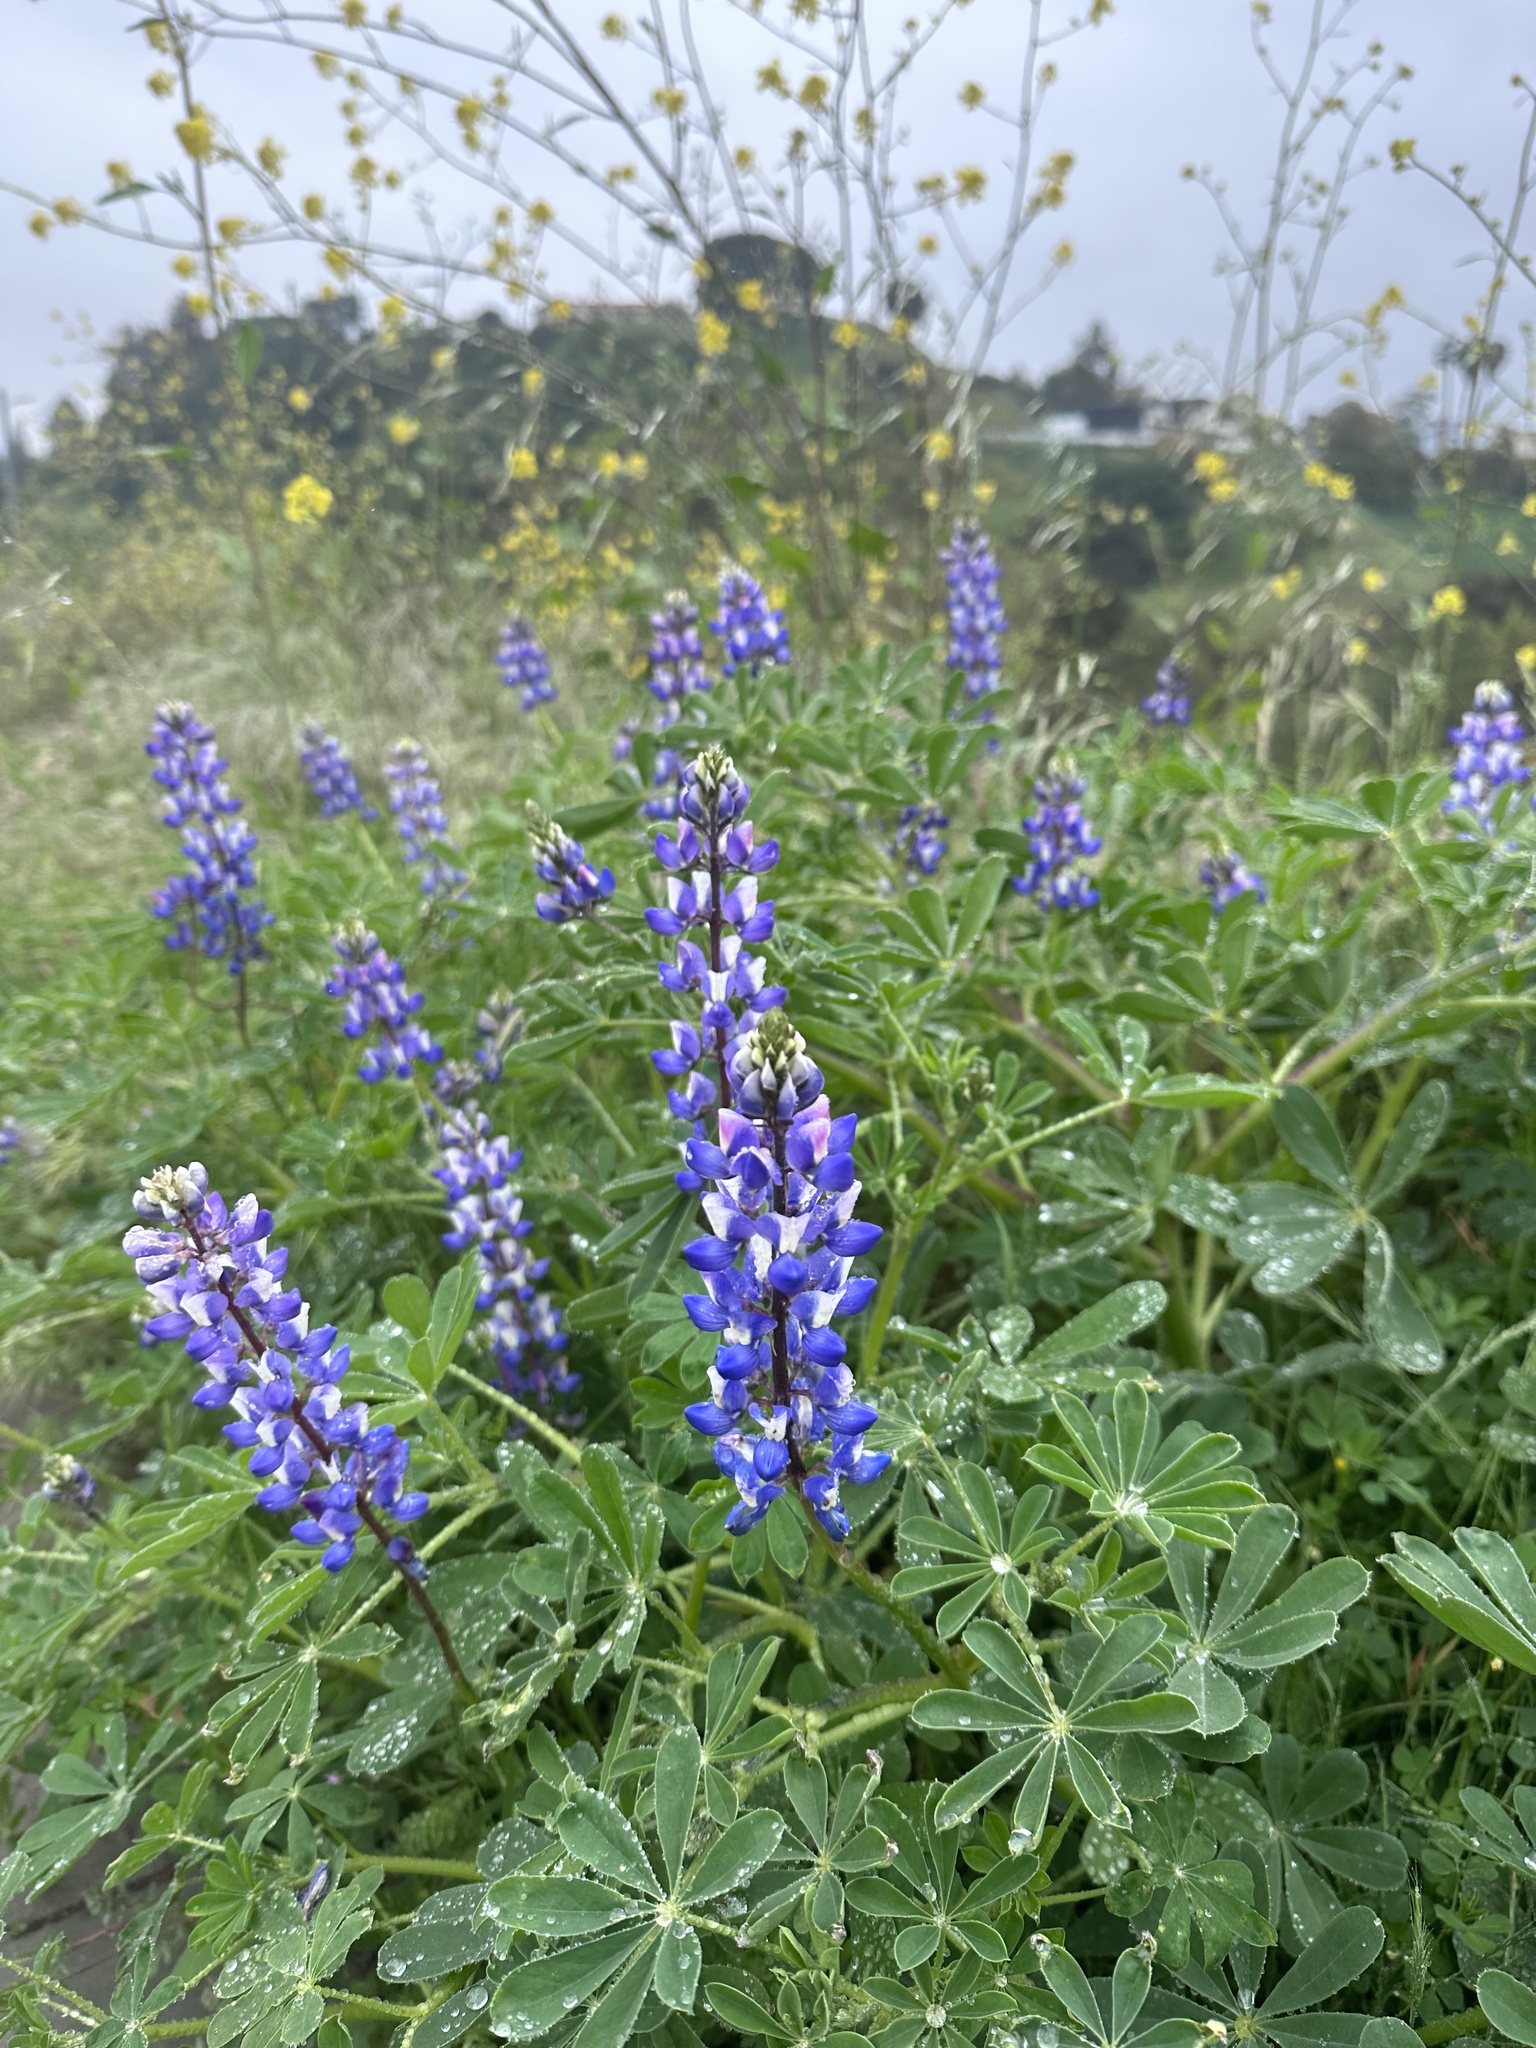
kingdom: Plantae
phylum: Tracheophyta
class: Magnoliopsida
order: Fabales
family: Fabaceae
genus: Lupinus
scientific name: Lupinus succulentus
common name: Arroyo lupine
